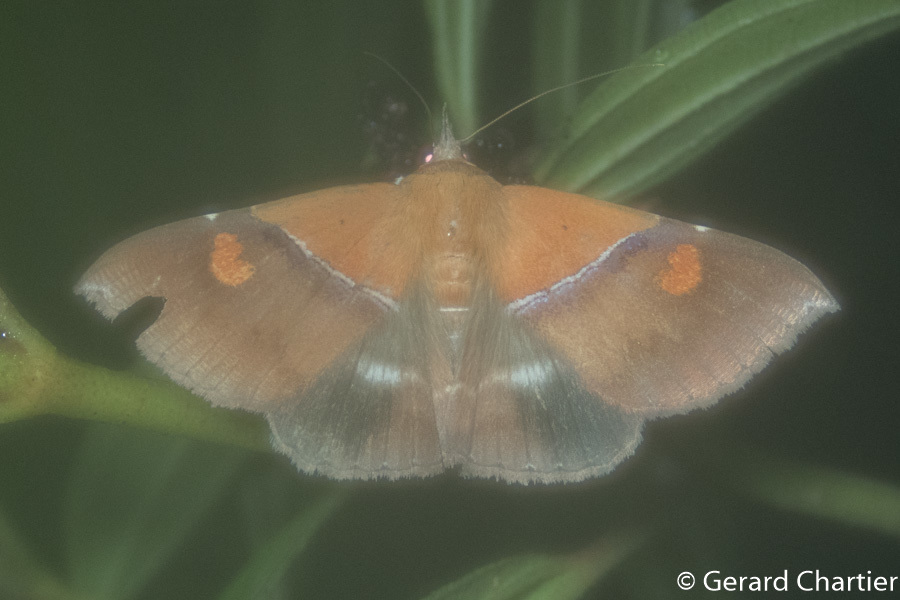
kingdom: Animalia
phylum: Arthropoda
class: Insecta
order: Lepidoptera
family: Erebidae
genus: Sympis
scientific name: Sympis rufibasis
